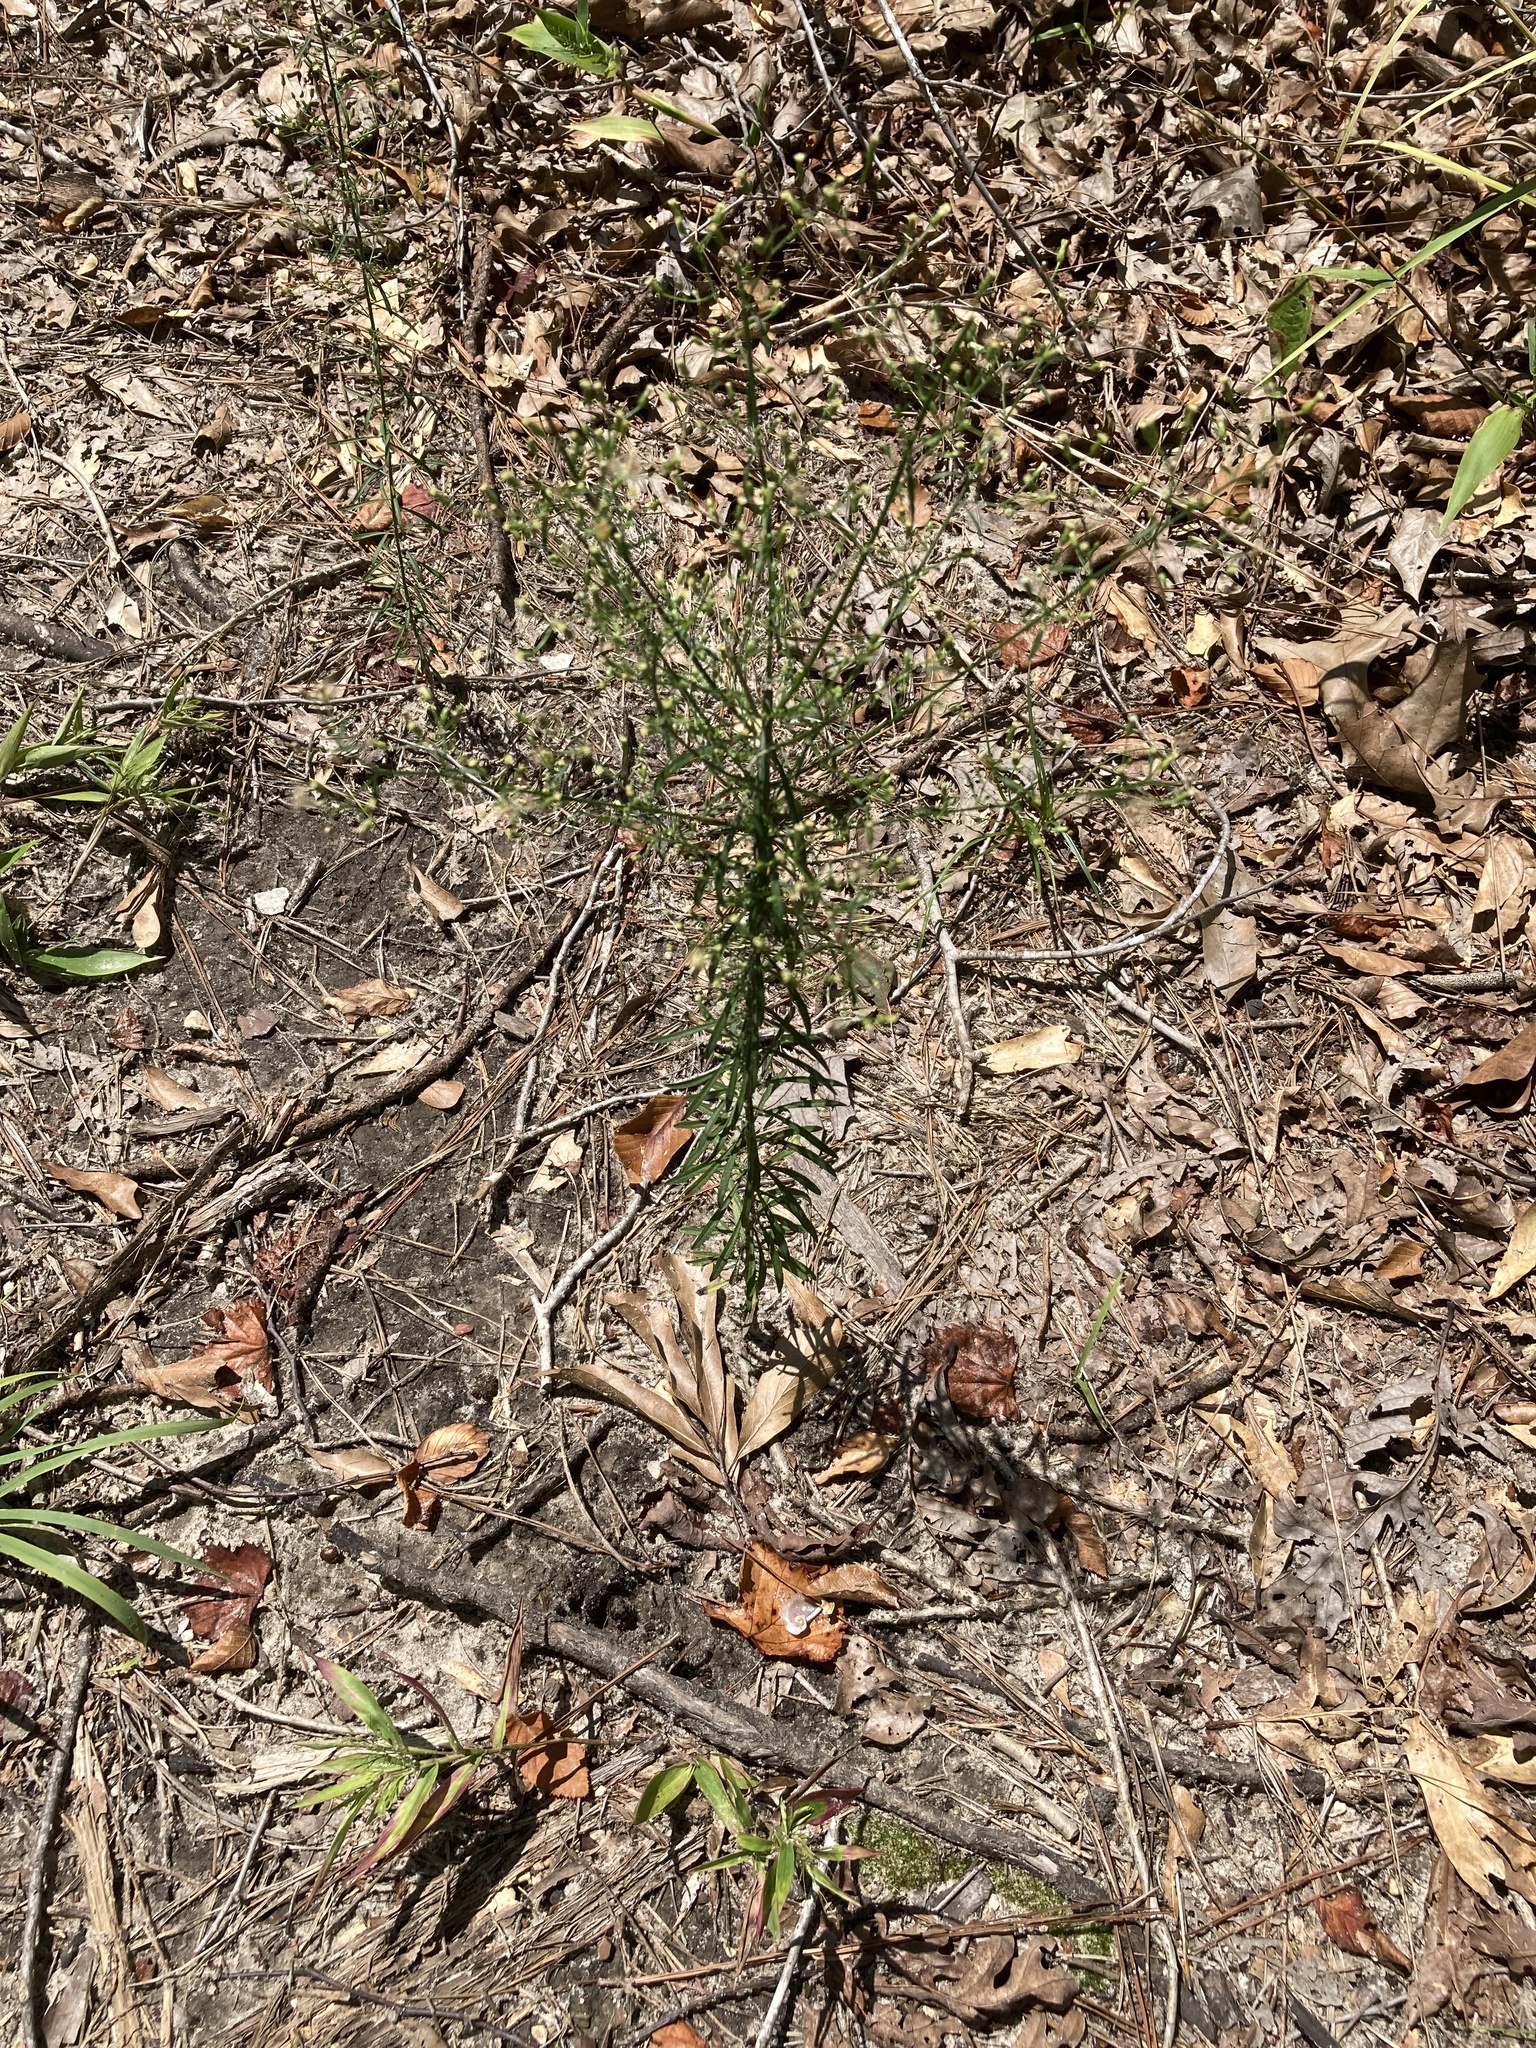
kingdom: Plantae
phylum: Tracheophyta
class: Magnoliopsida
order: Asterales
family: Asteraceae
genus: Erigeron
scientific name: Erigeron canadensis
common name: Canadian fleabane
